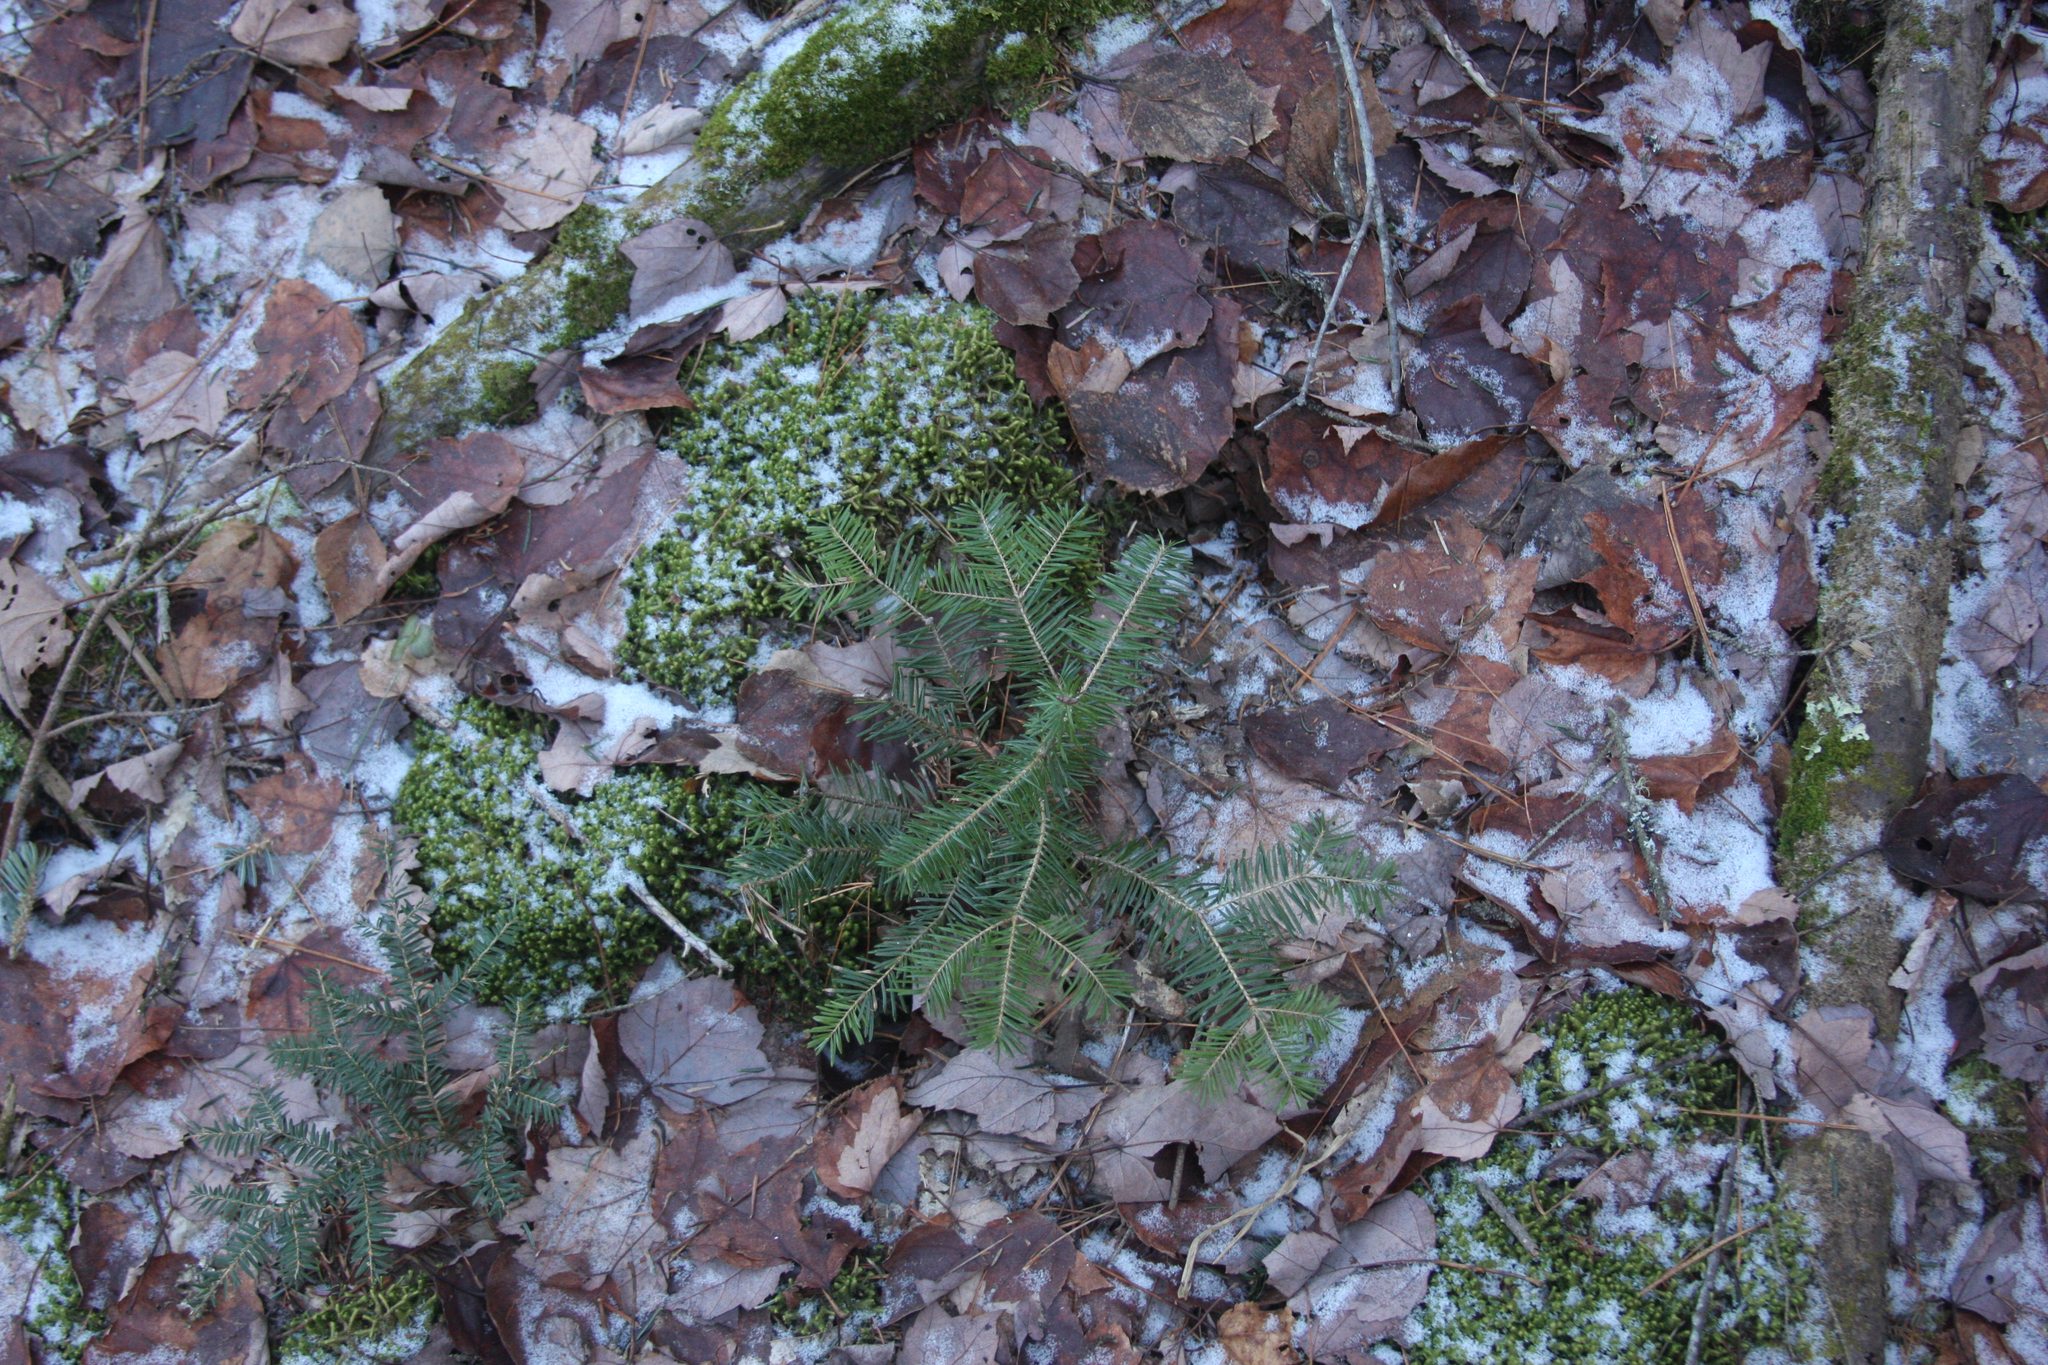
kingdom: Plantae
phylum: Tracheophyta
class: Pinopsida
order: Pinales
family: Pinaceae
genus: Abies
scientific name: Abies balsamea
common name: Balsam fir
